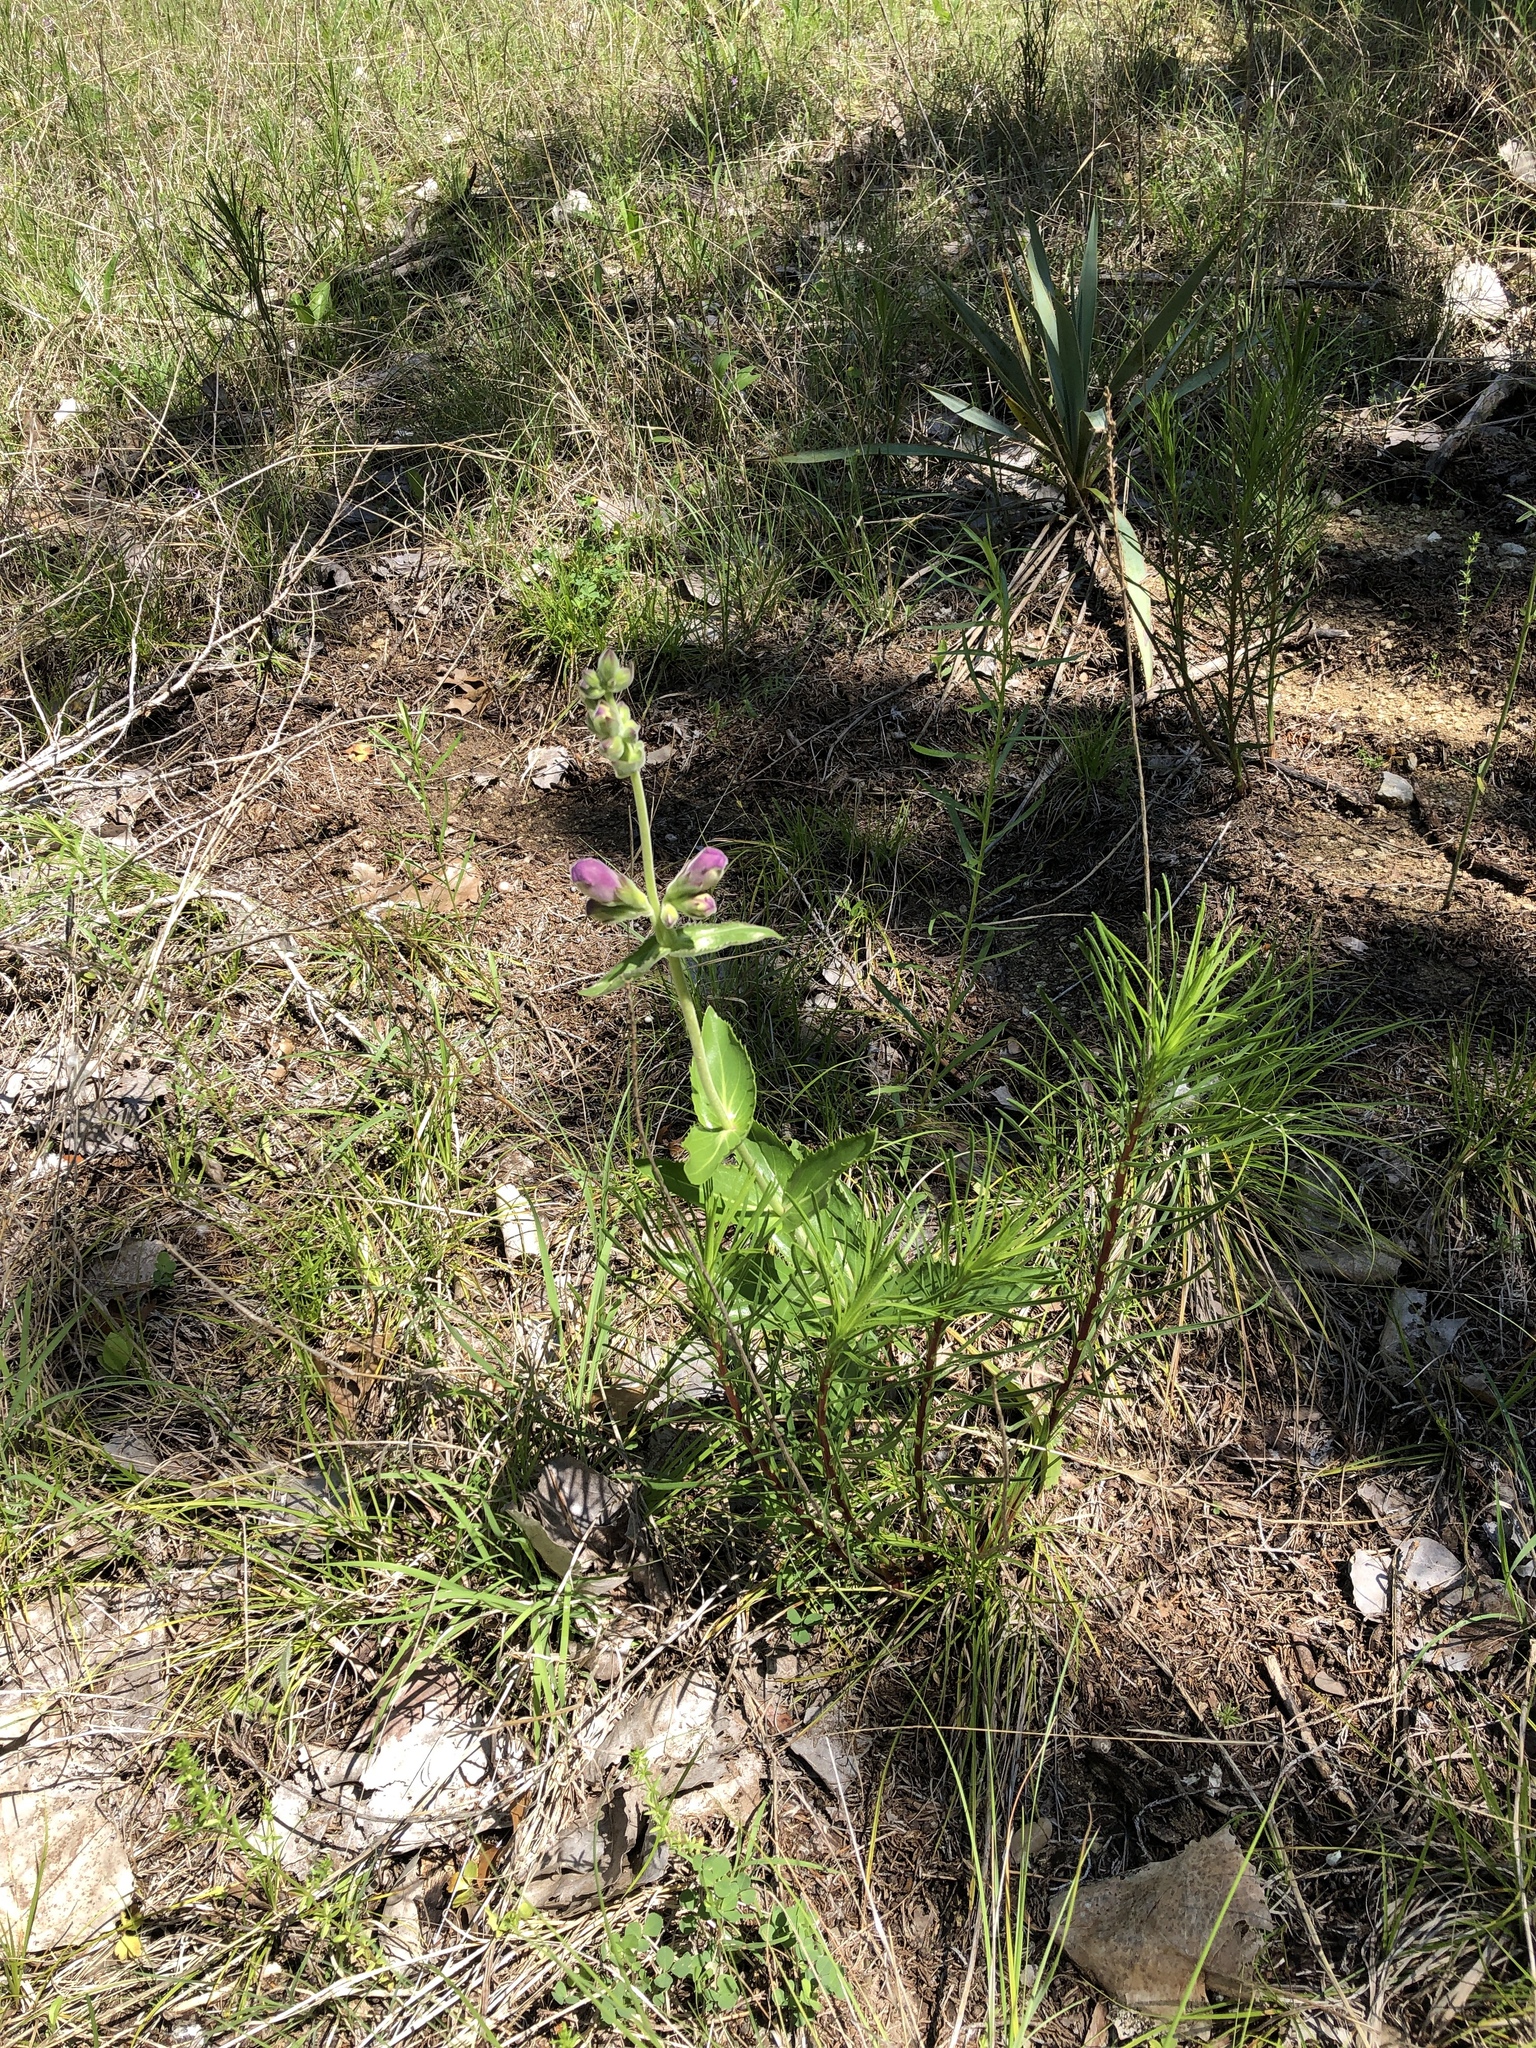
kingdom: Plantae
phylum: Tracheophyta
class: Magnoliopsida
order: Lamiales
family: Plantaginaceae
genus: Penstemon
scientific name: Penstemon cobaea
